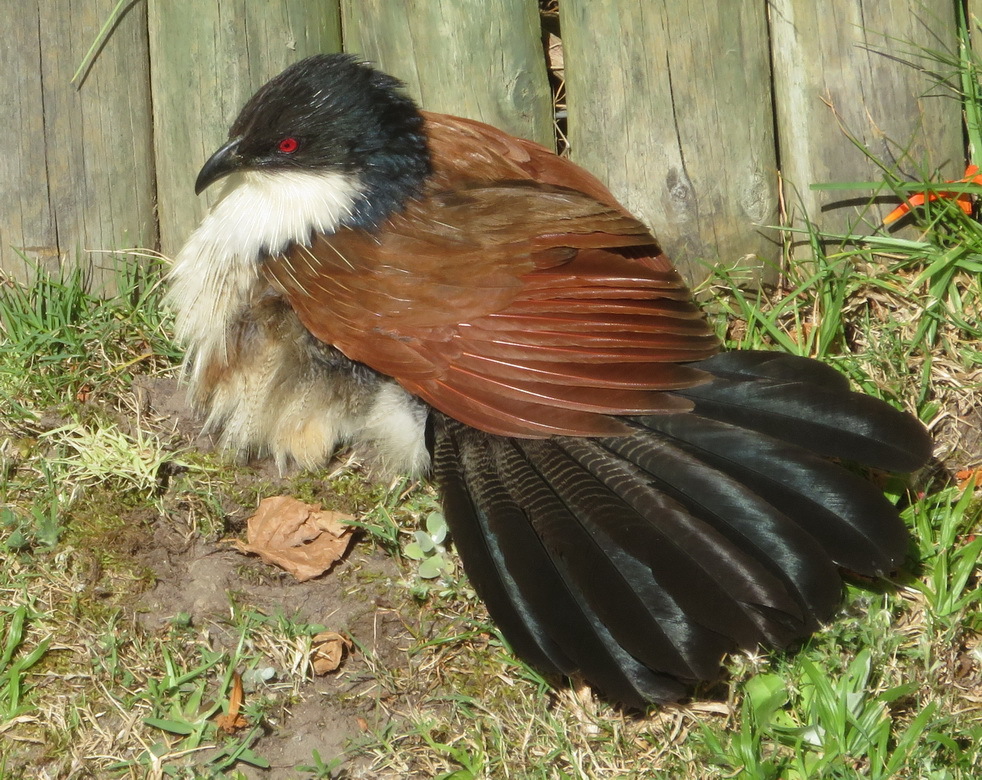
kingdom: Animalia
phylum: Chordata
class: Aves
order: Cuculiformes
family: Cuculidae
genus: Centropus
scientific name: Centropus superciliosus
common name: White-browed coucal
